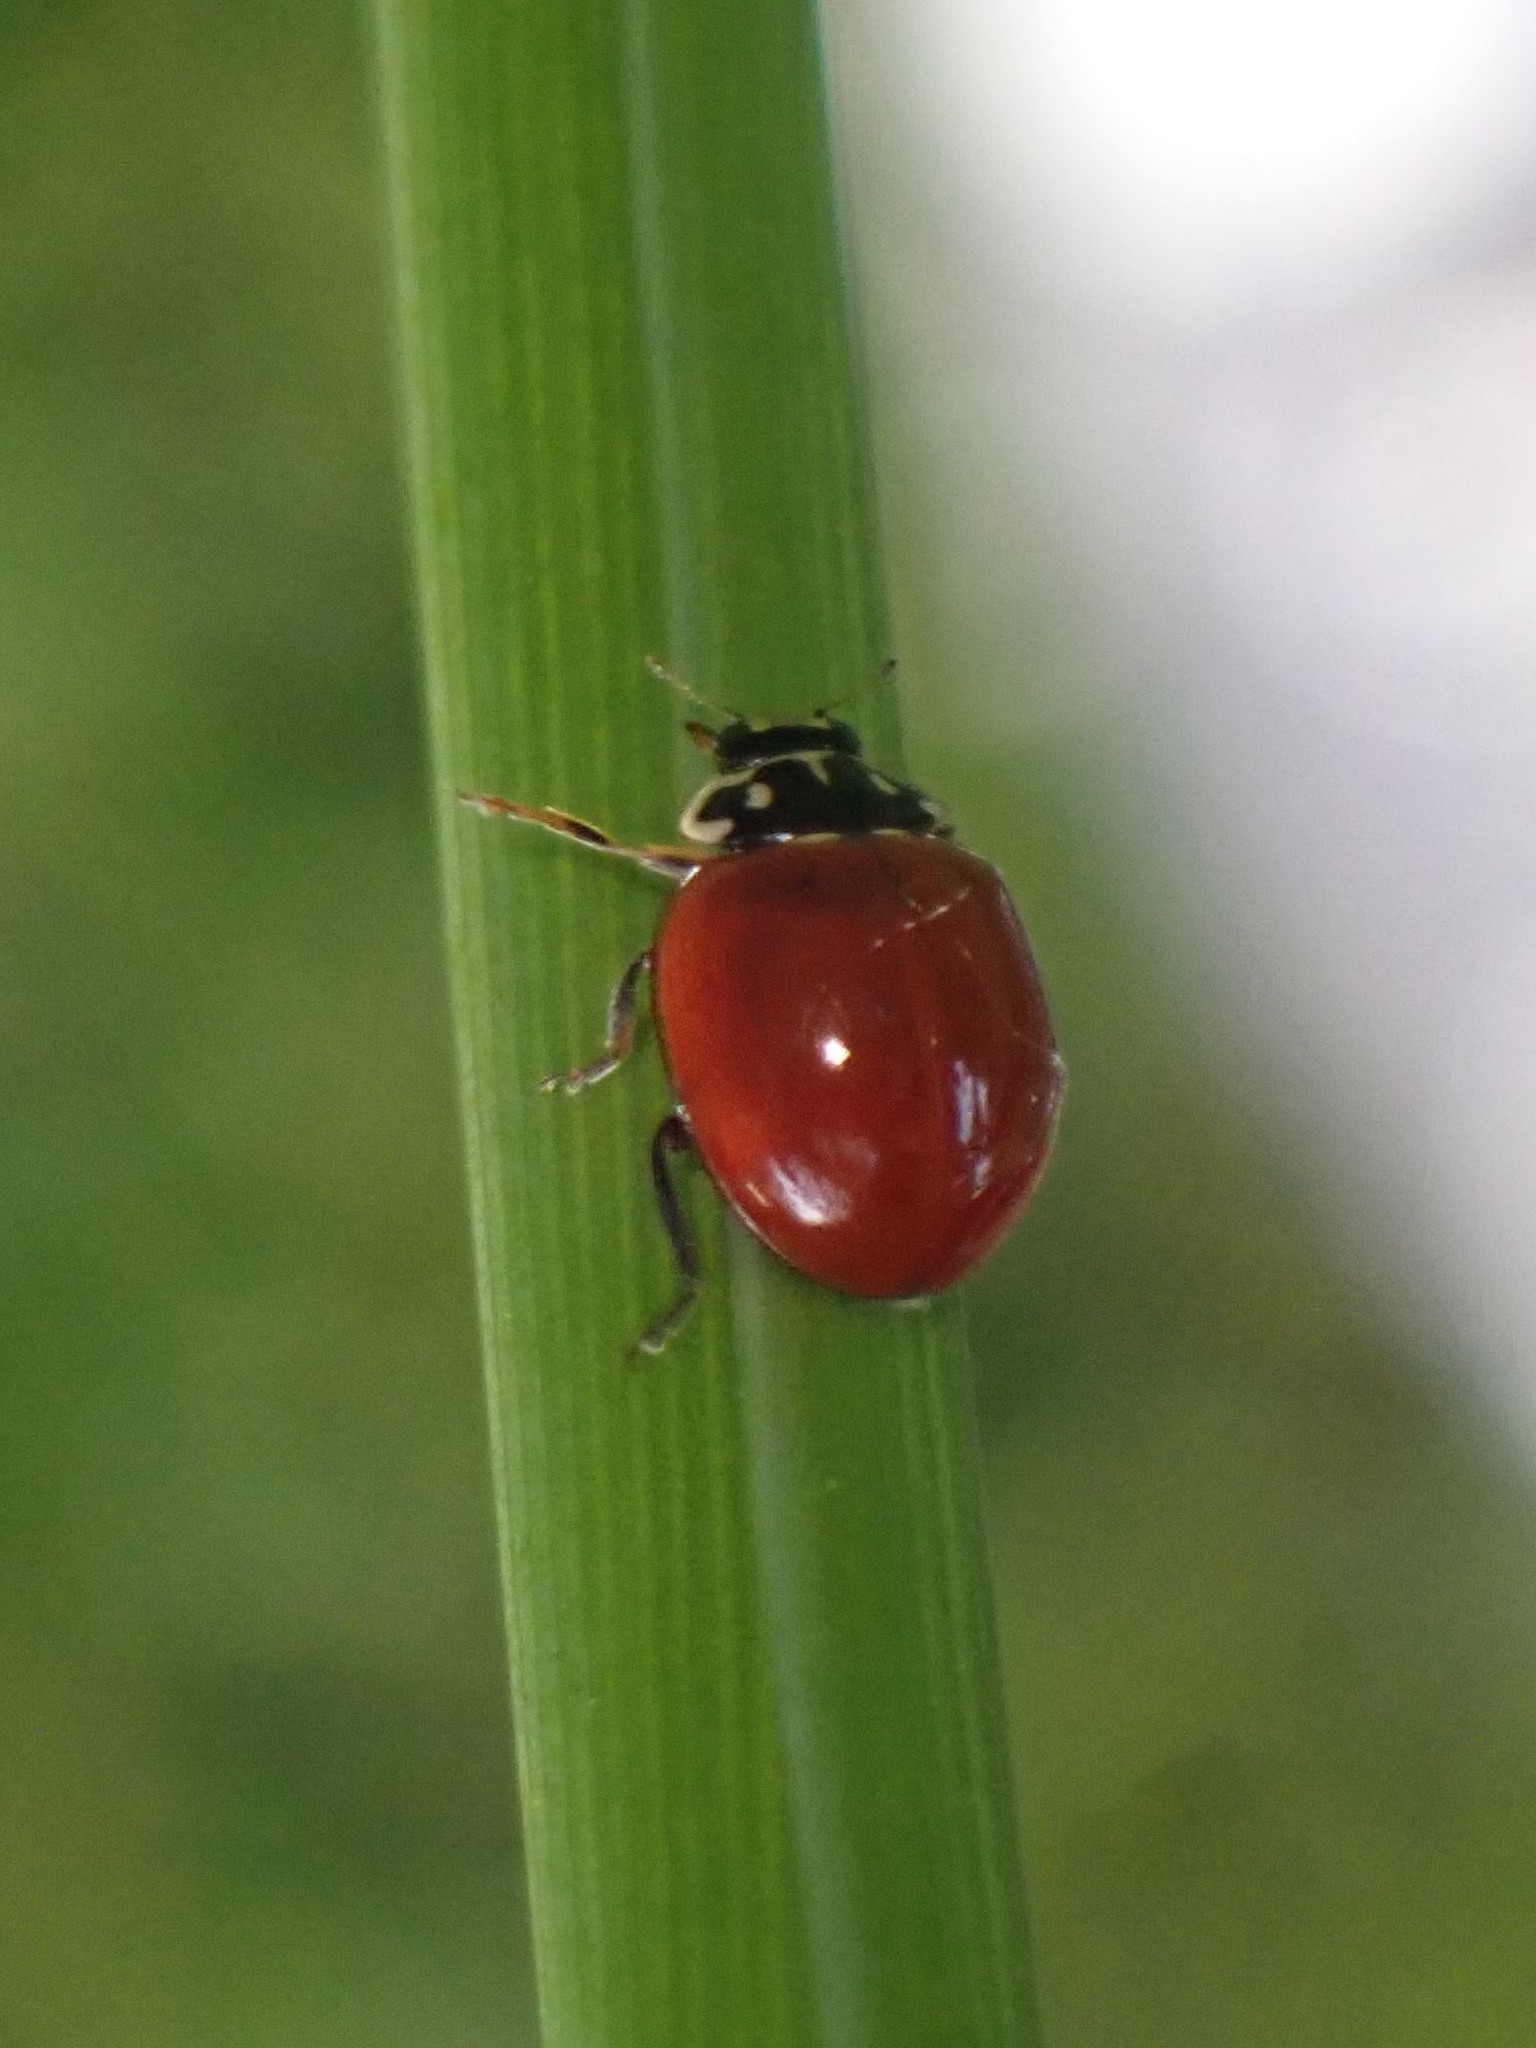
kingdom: Animalia
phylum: Arthropoda
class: Insecta
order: Coleoptera
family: Coccinellidae
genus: Cycloneda
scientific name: Cycloneda polita
